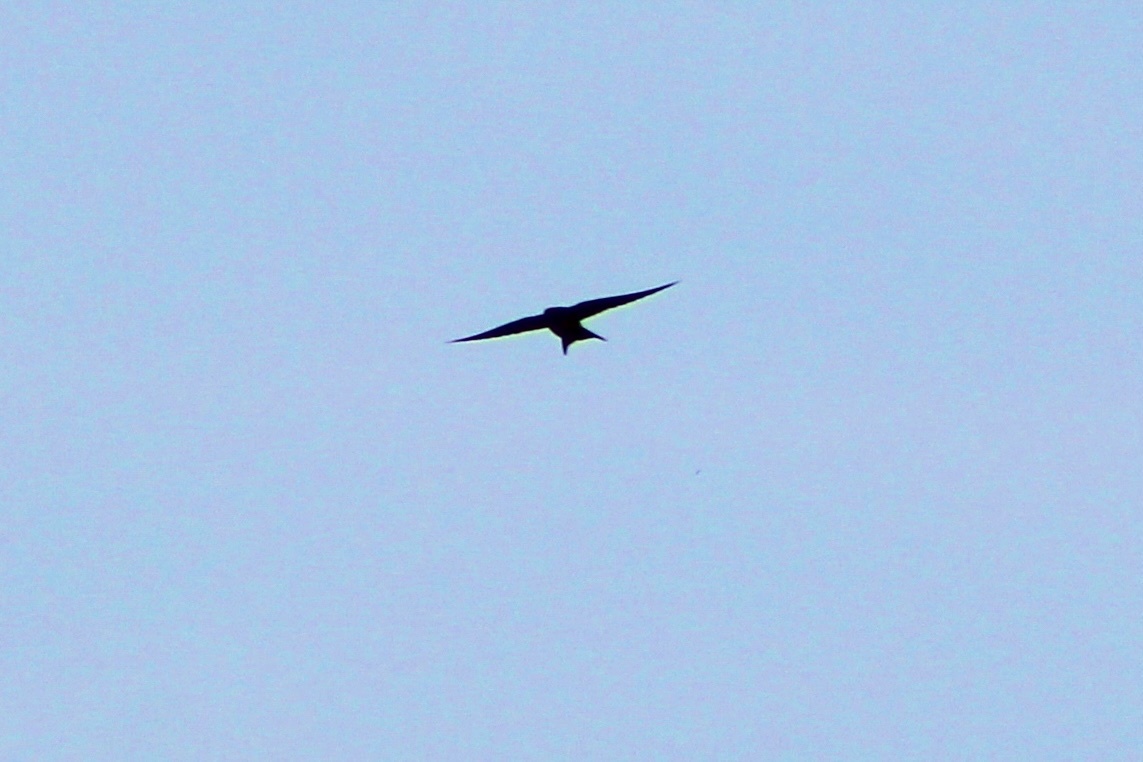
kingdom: Animalia
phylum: Chordata
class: Aves
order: Passeriformes
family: Hirundinidae
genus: Hirundo
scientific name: Hirundo rustica
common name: Barn swallow
